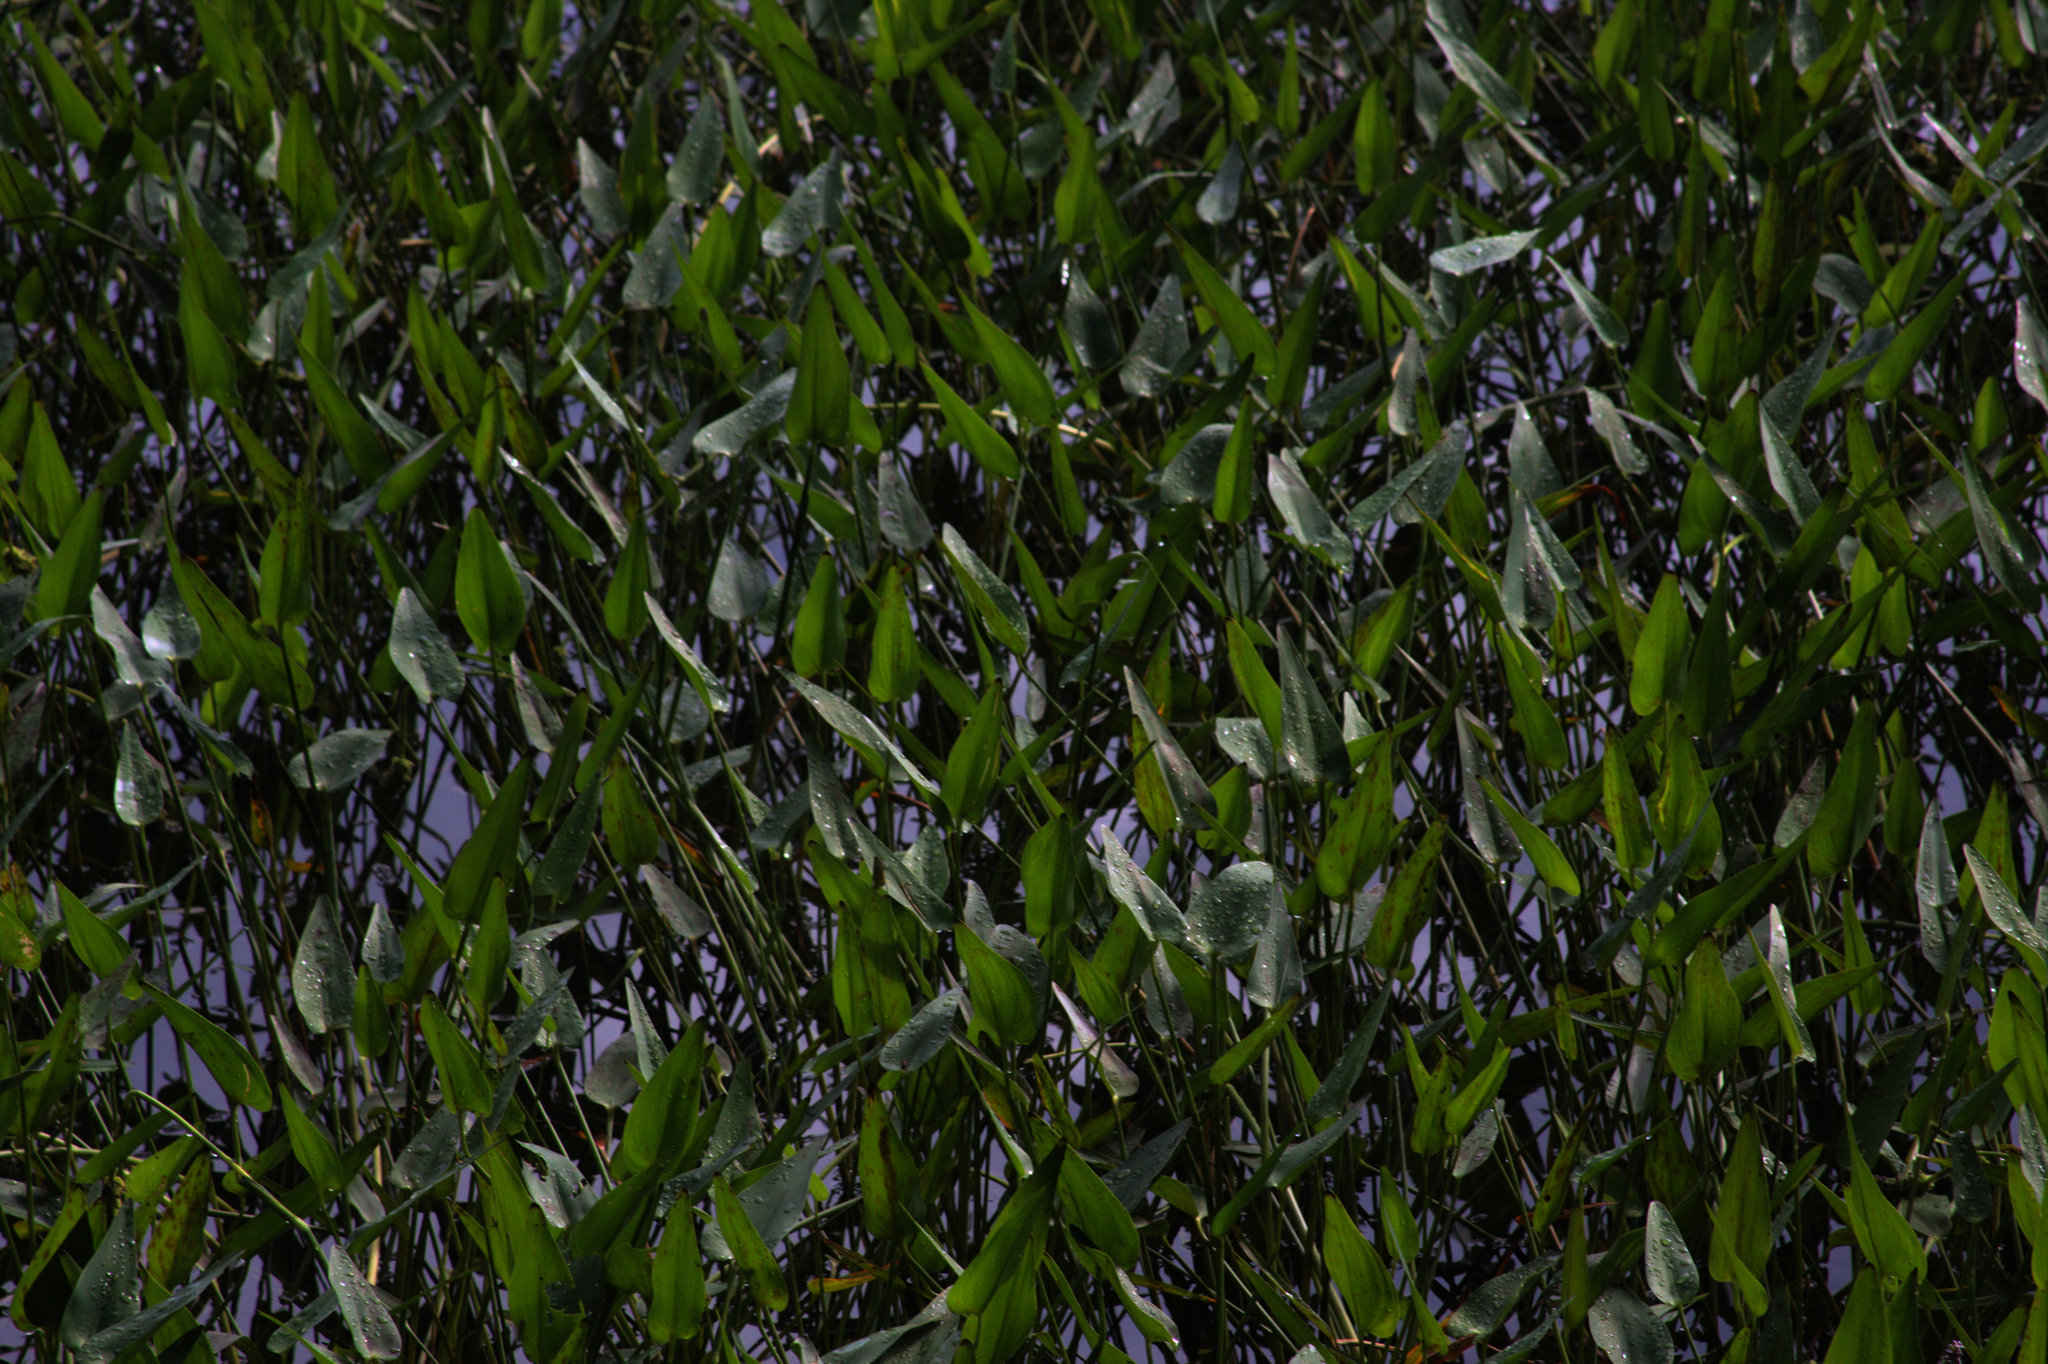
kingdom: Plantae
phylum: Tracheophyta
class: Liliopsida
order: Commelinales
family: Pontederiaceae
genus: Pontederia
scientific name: Pontederia cordata
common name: Pickerelweed
